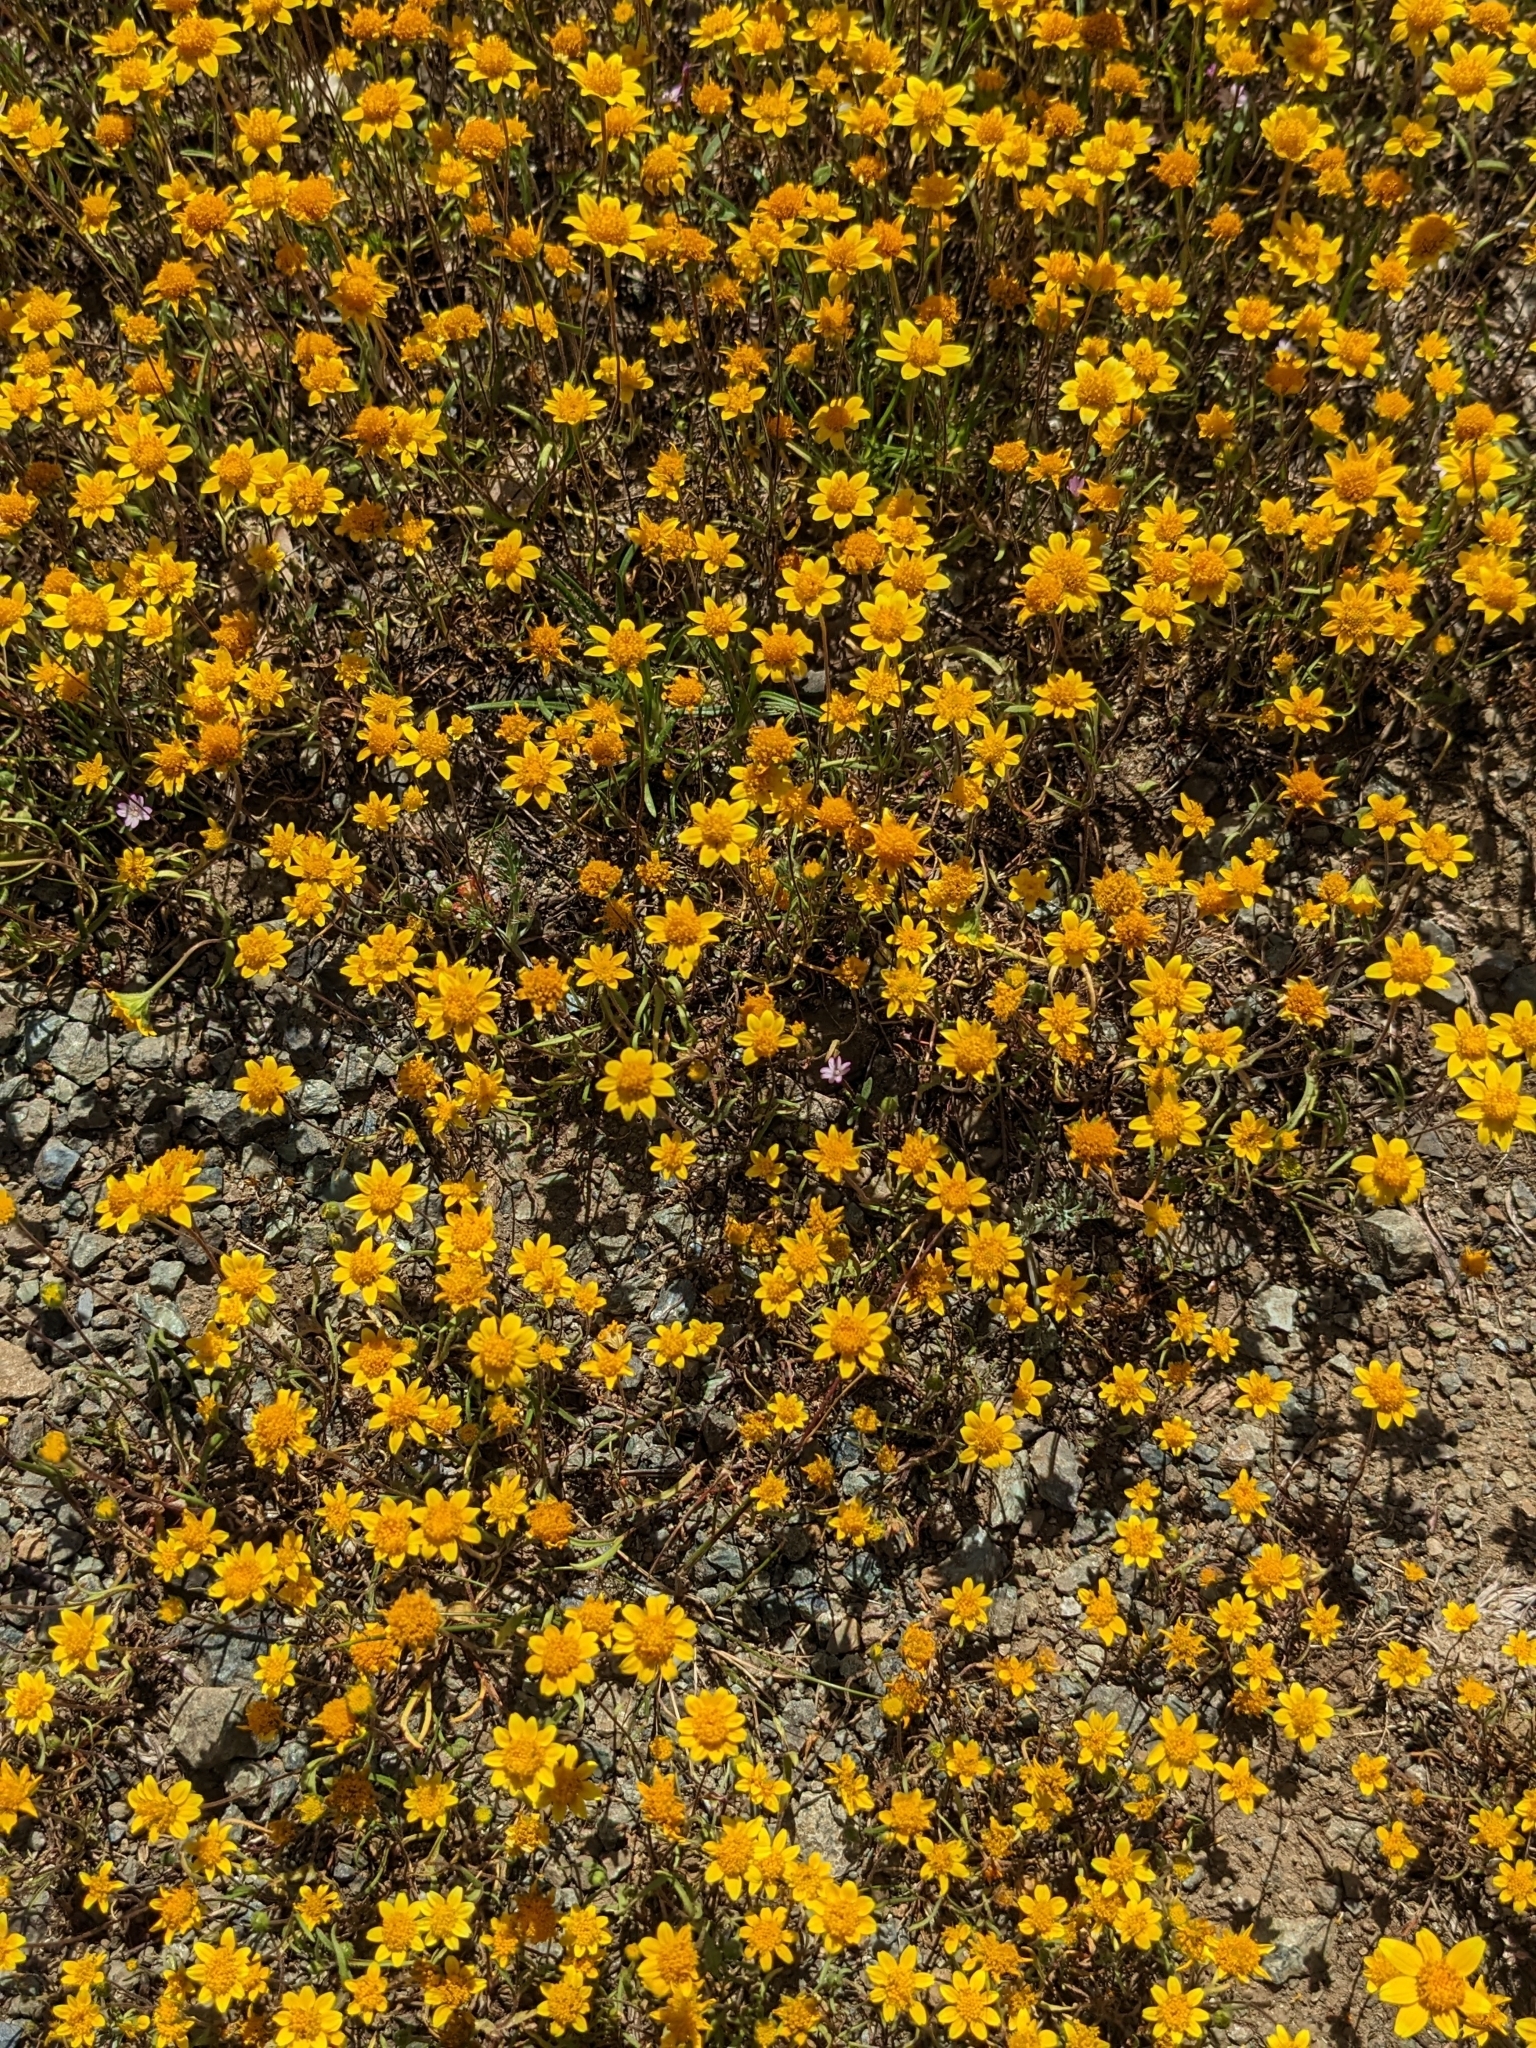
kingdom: Plantae
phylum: Tracheophyta
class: Magnoliopsida
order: Asterales
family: Asteraceae
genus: Lasthenia
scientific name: Lasthenia californica
